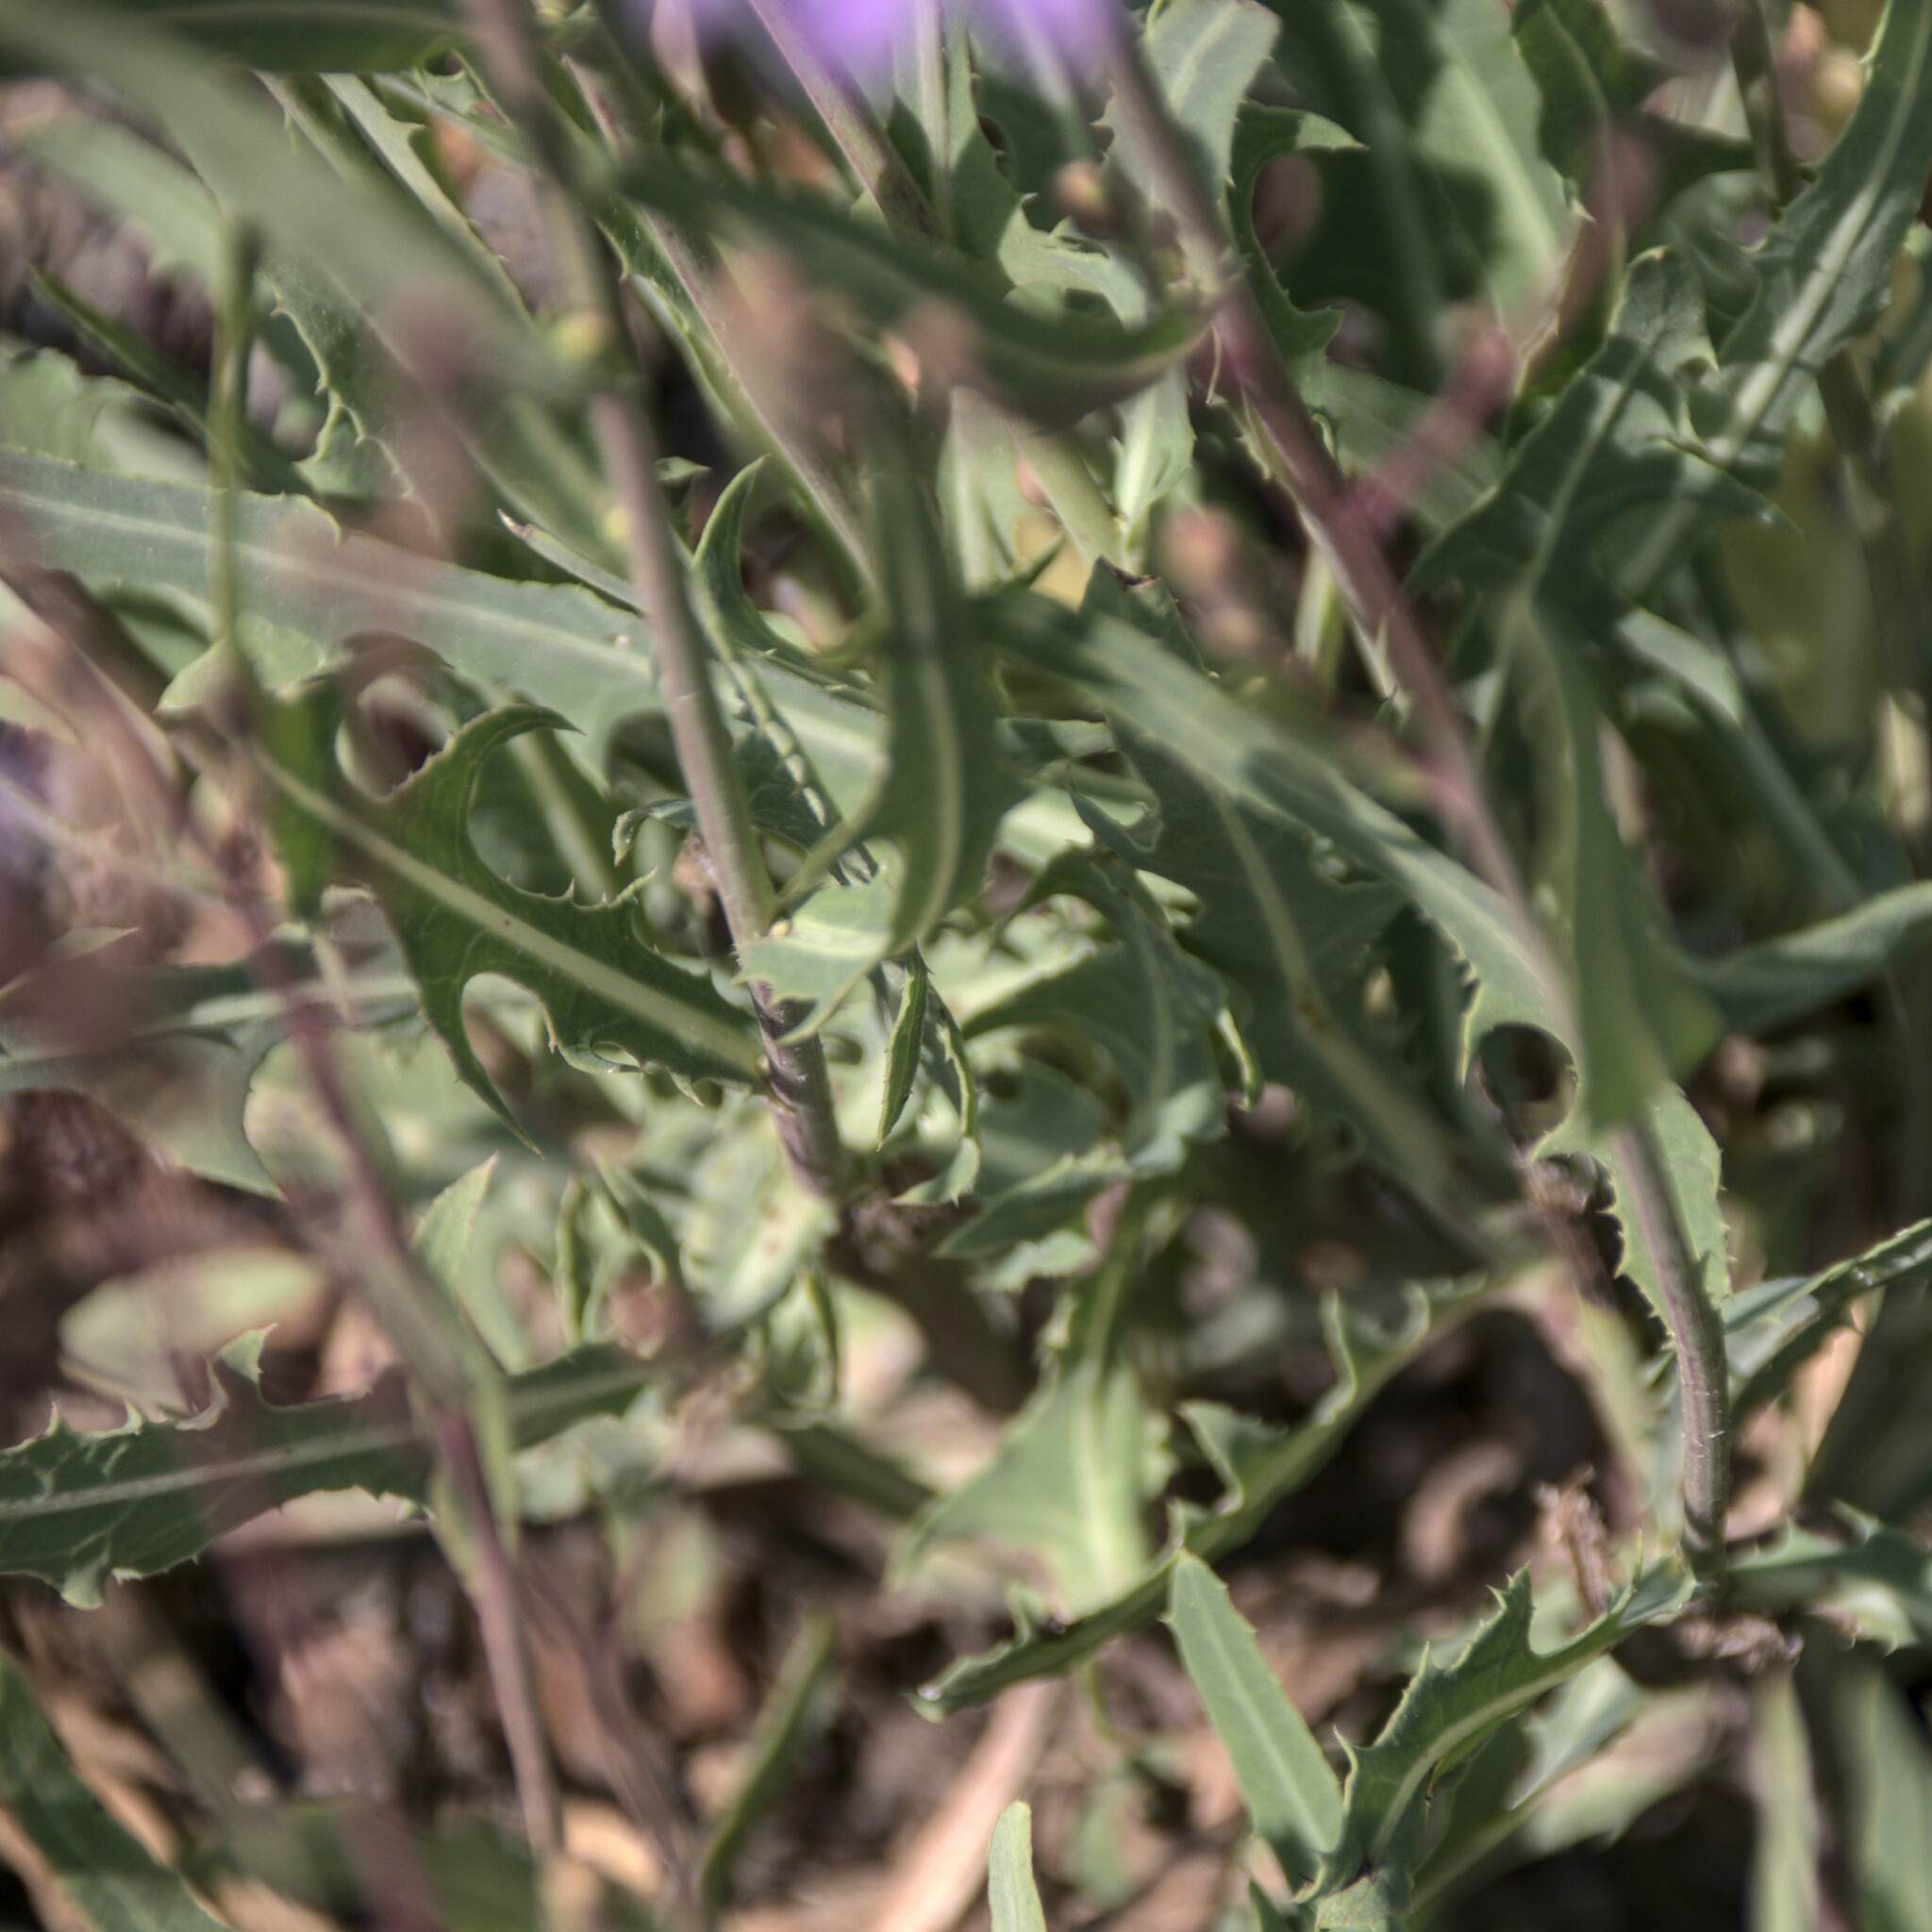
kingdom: Plantae
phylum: Tracheophyta
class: Magnoliopsida
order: Asterales
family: Asteraceae
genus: Lactuca
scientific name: Lactuca tatarica
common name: Blue lettuce
